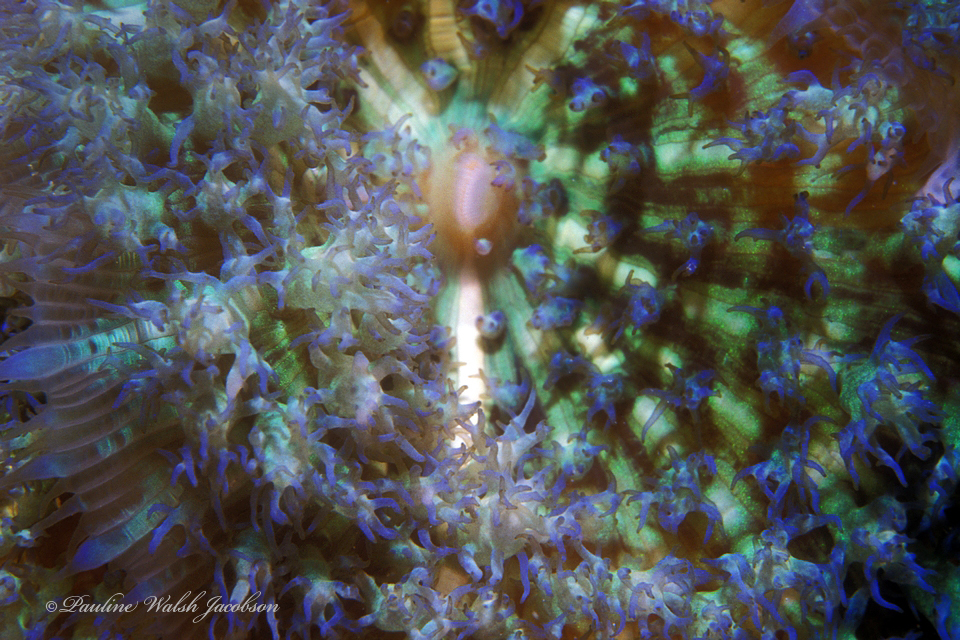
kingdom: Animalia
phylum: Cnidaria
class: Anthozoa
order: Corallimorpharia
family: Discosomidae
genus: Rhodactis
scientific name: Rhodactis osculifera
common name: Warty corallimorph
